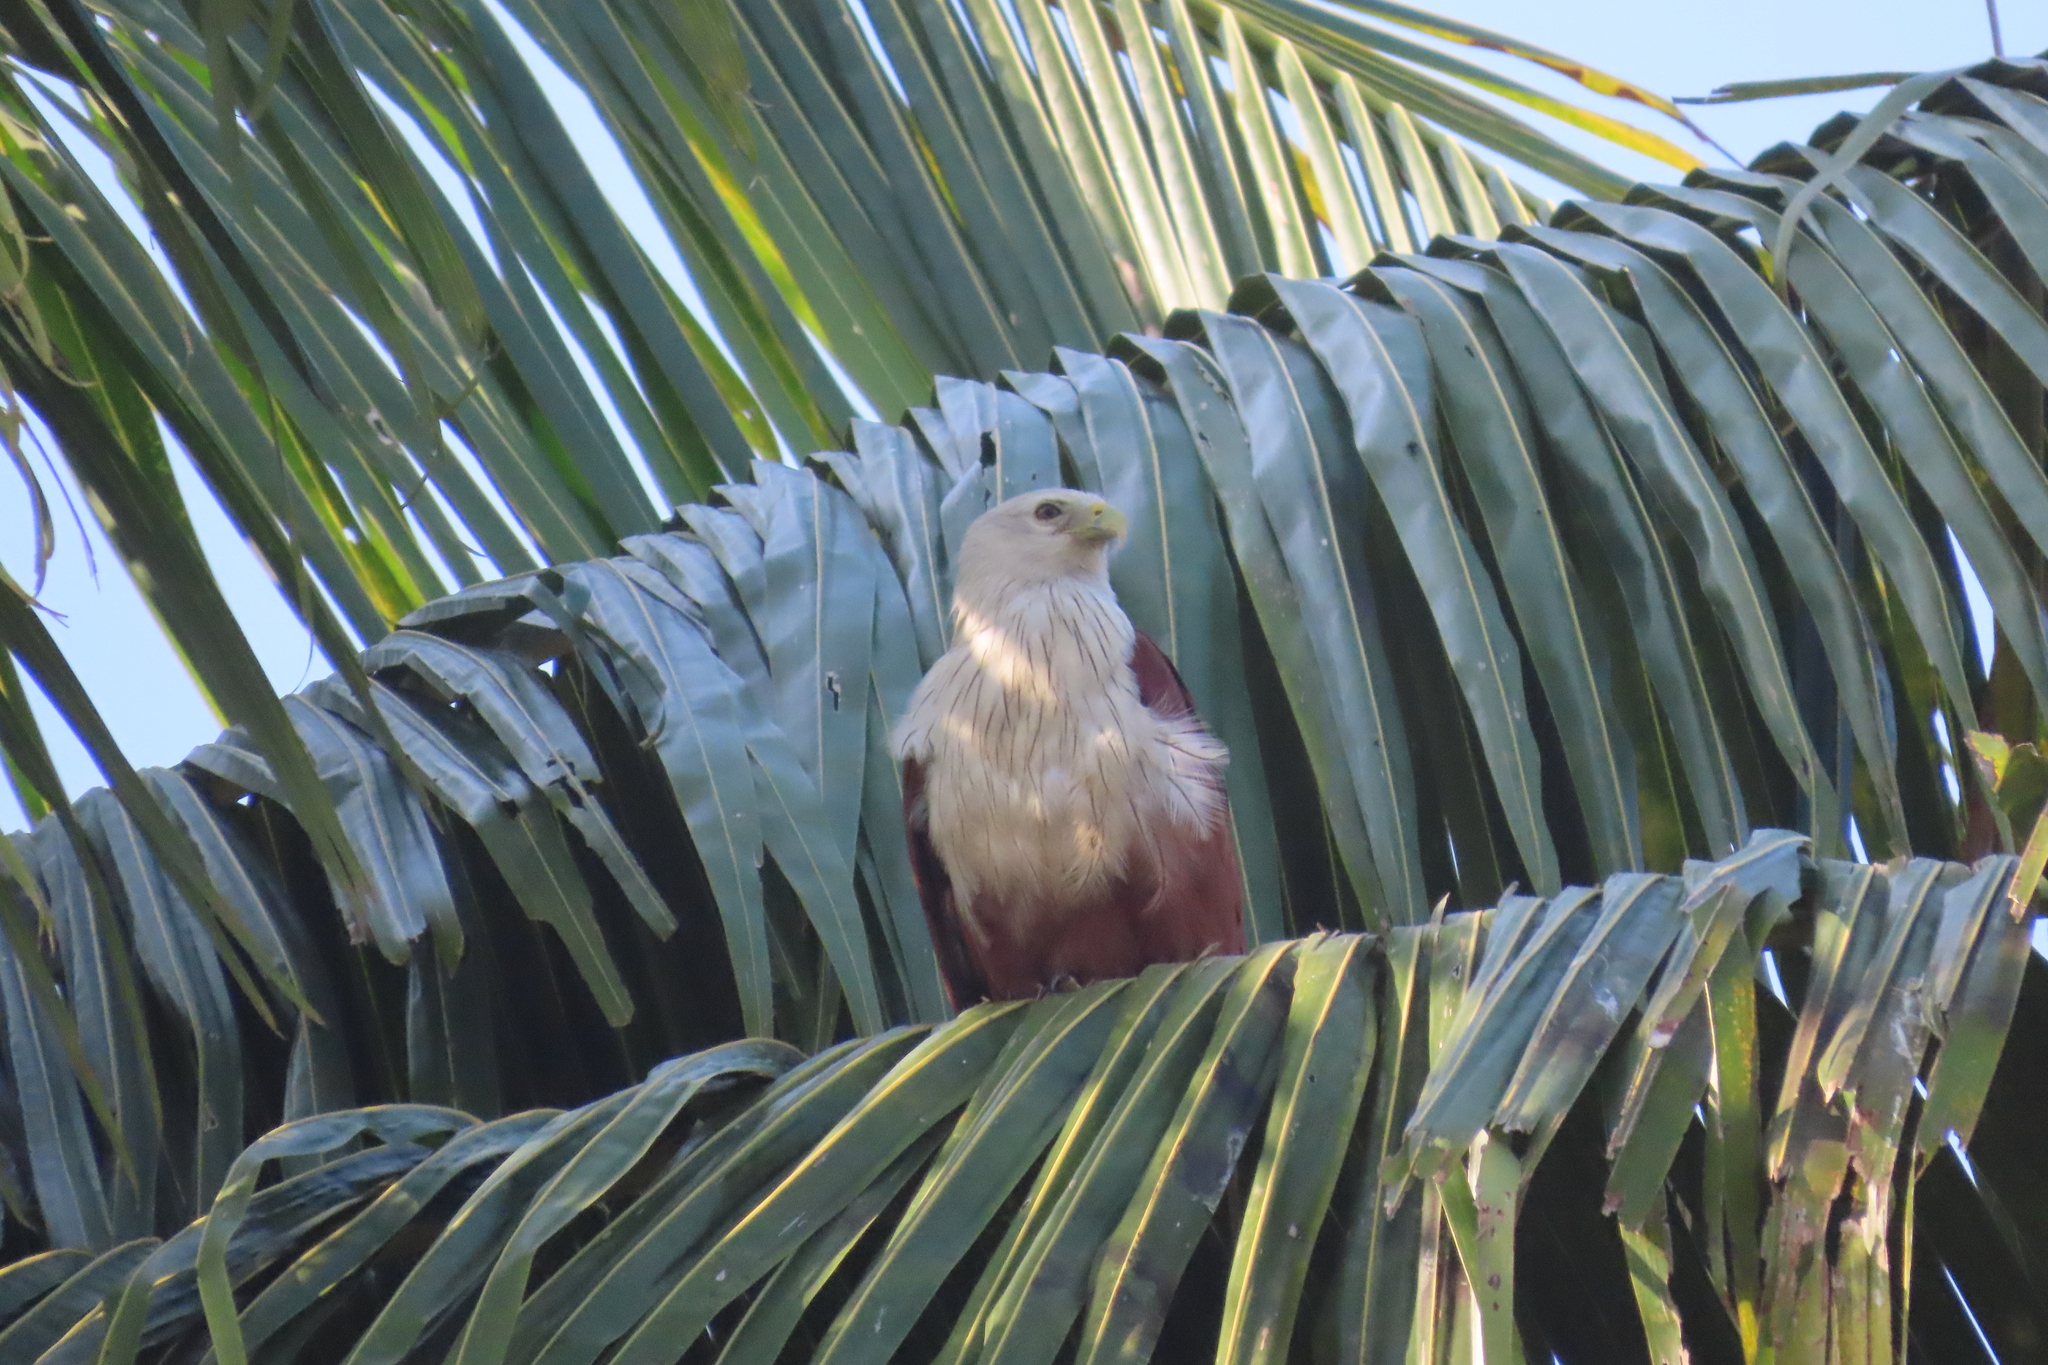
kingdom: Animalia
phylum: Chordata
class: Aves
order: Accipitriformes
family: Accipitridae
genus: Haliastur
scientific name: Haliastur indus
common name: Brahminy kite
